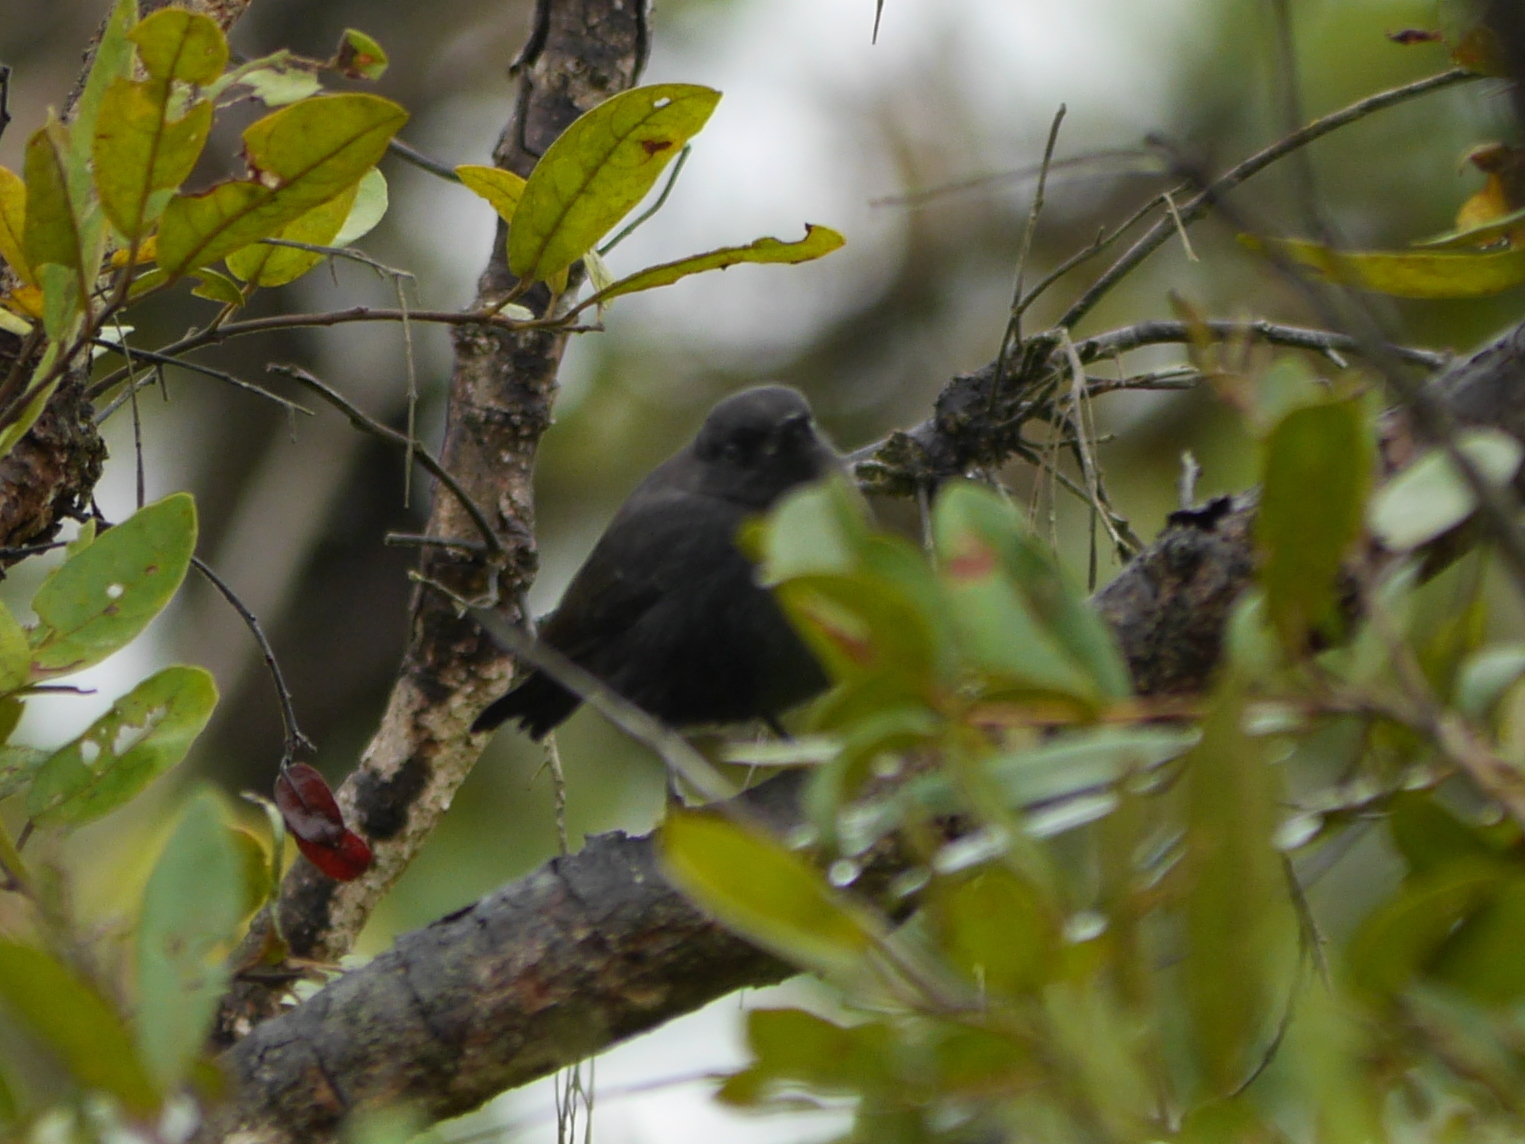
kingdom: Animalia
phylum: Chordata
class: Aves
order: Passeriformes
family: Muscicapidae
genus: Melaenornis
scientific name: Melaenornis edolioides
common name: Northern black flycatcher
